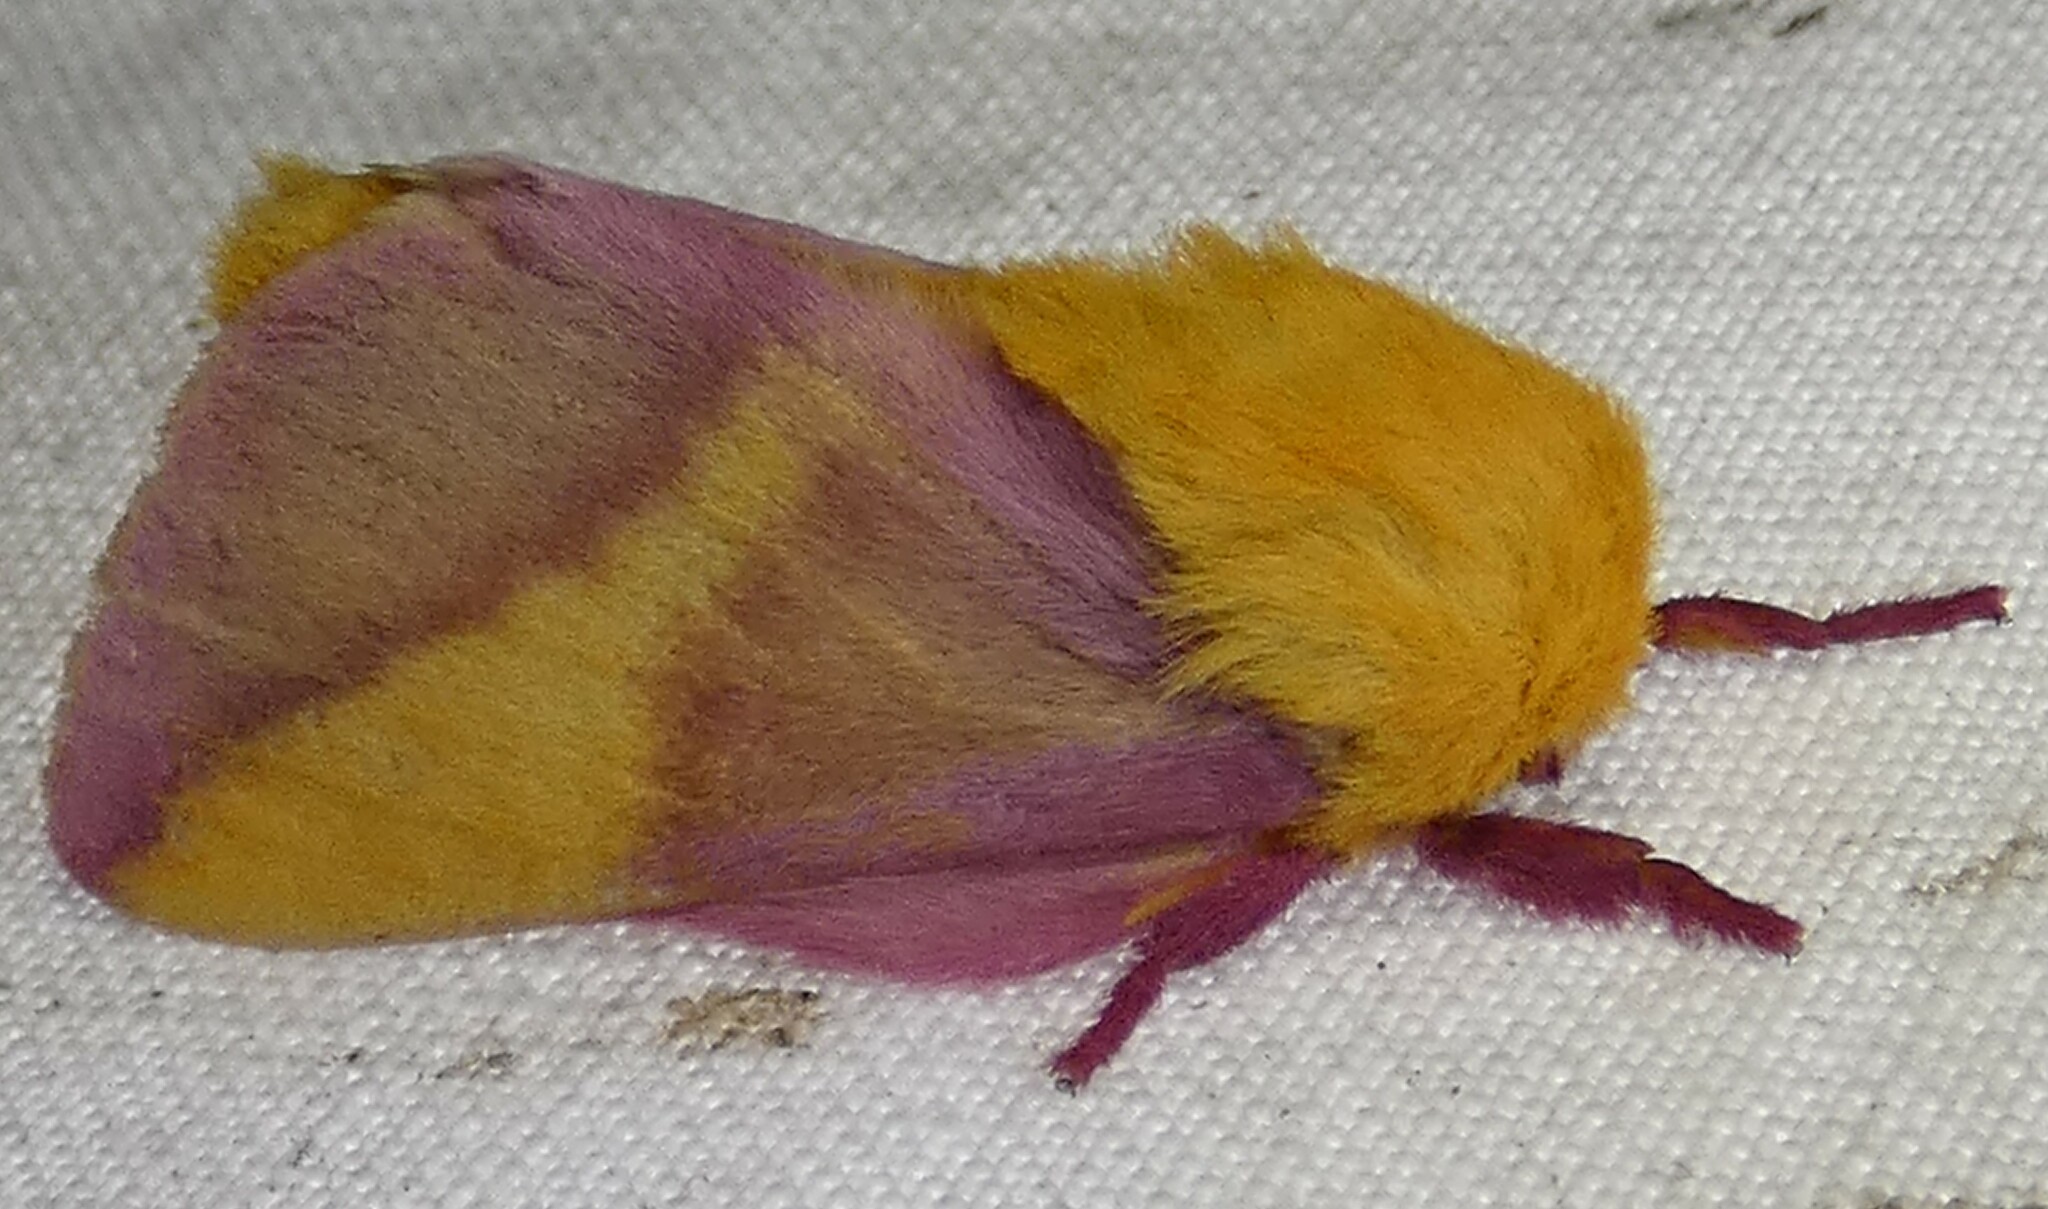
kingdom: Animalia
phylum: Arthropoda
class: Insecta
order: Lepidoptera
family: Saturniidae
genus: Dryocampa
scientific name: Dryocampa rubicunda
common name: Rosy maple moth
